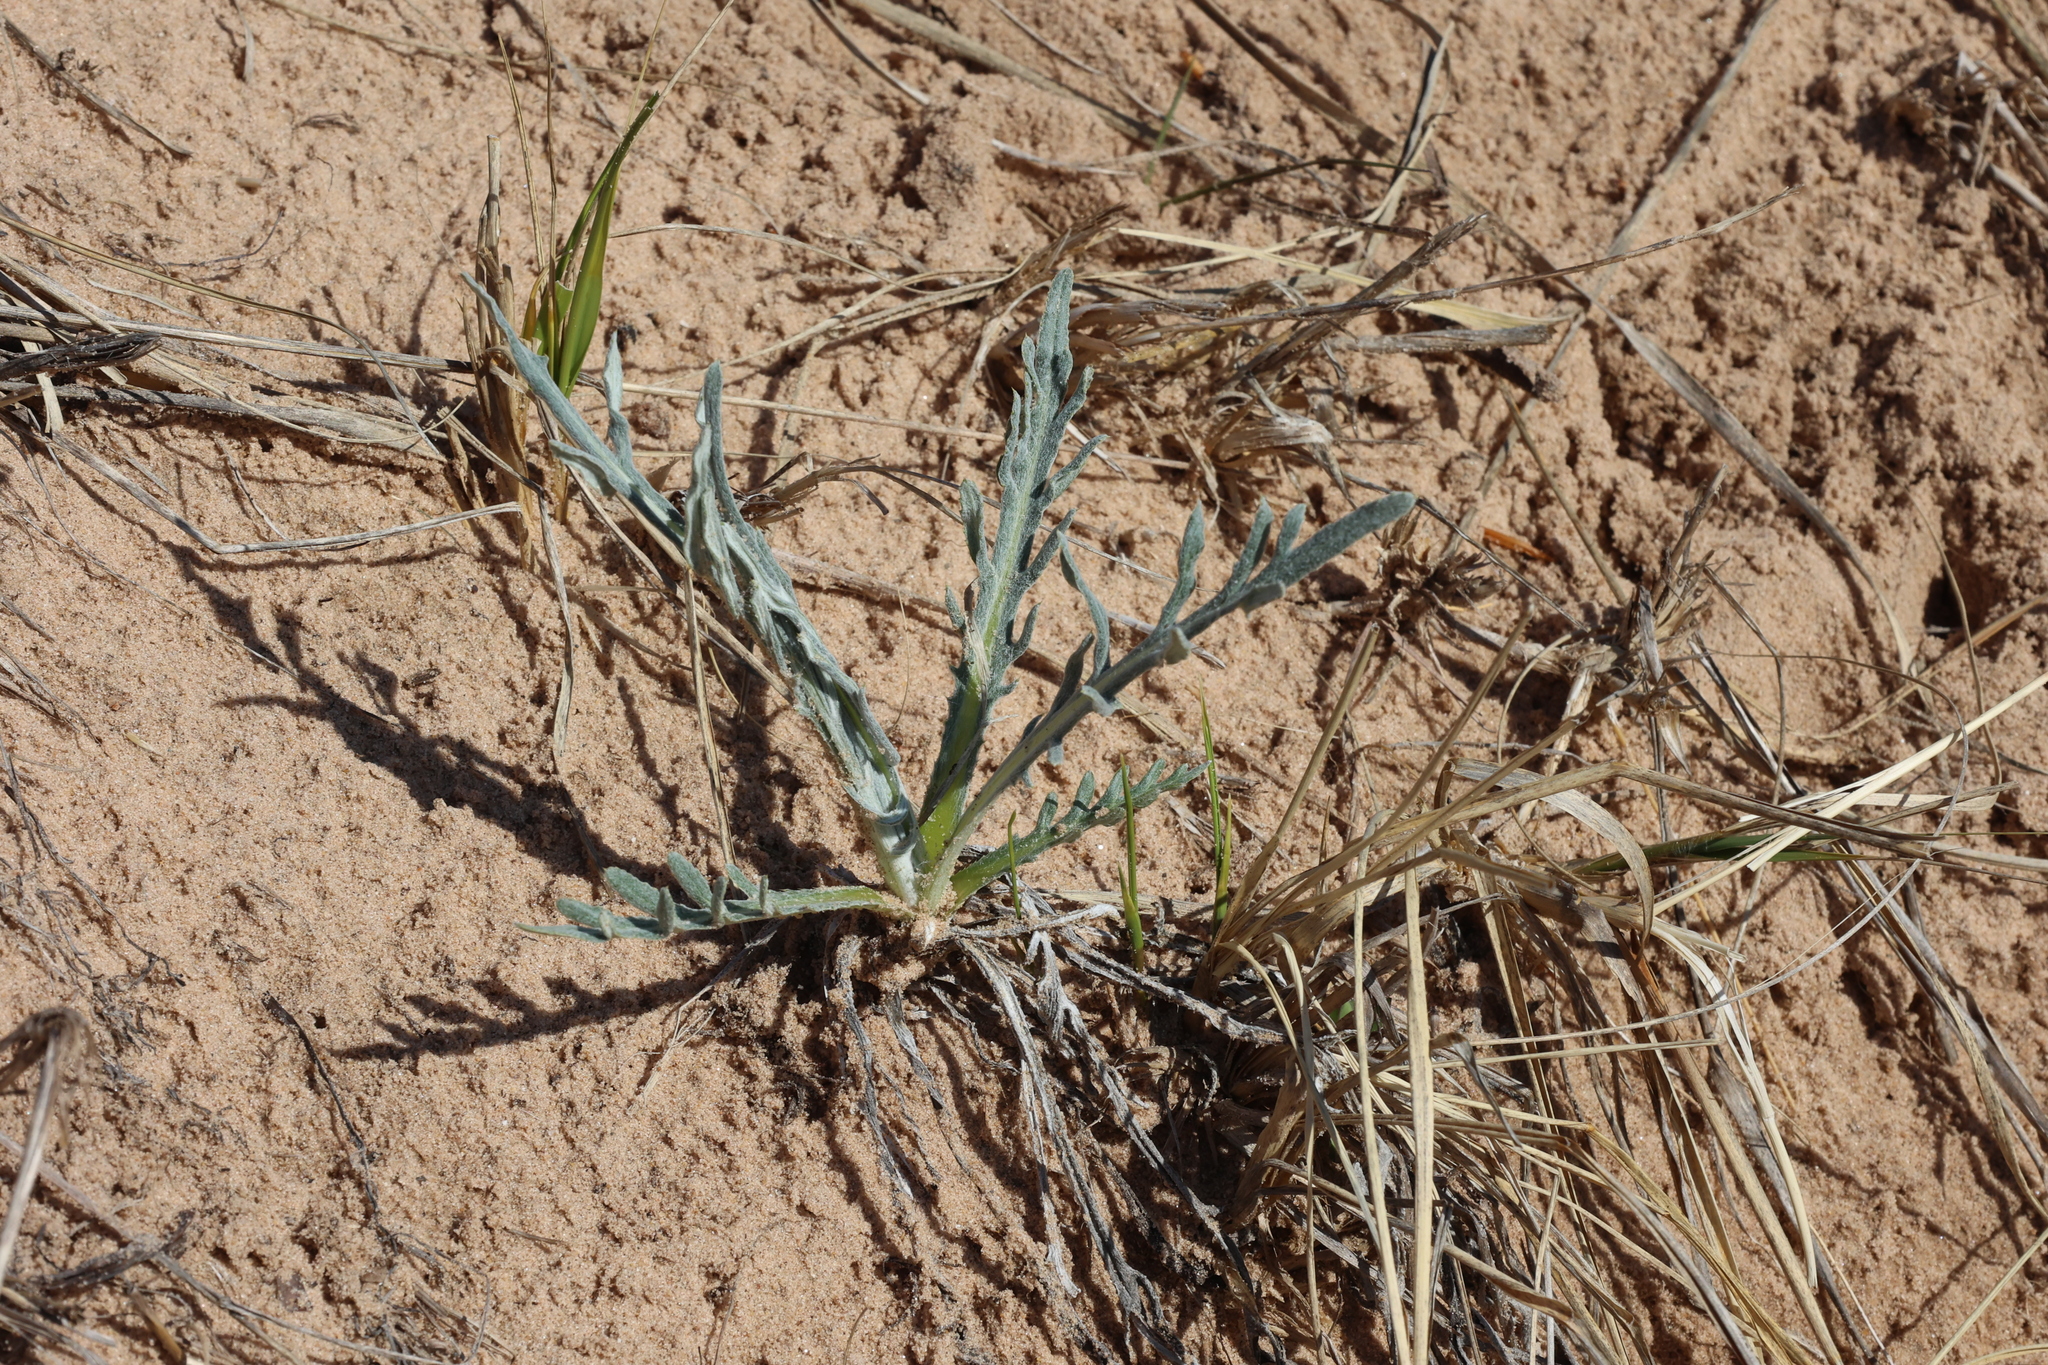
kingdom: Plantae
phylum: Tracheophyta
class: Magnoliopsida
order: Asterales
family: Asteraceae
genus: Cirsium
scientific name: Cirsium pitcheri
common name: Dune thistle
